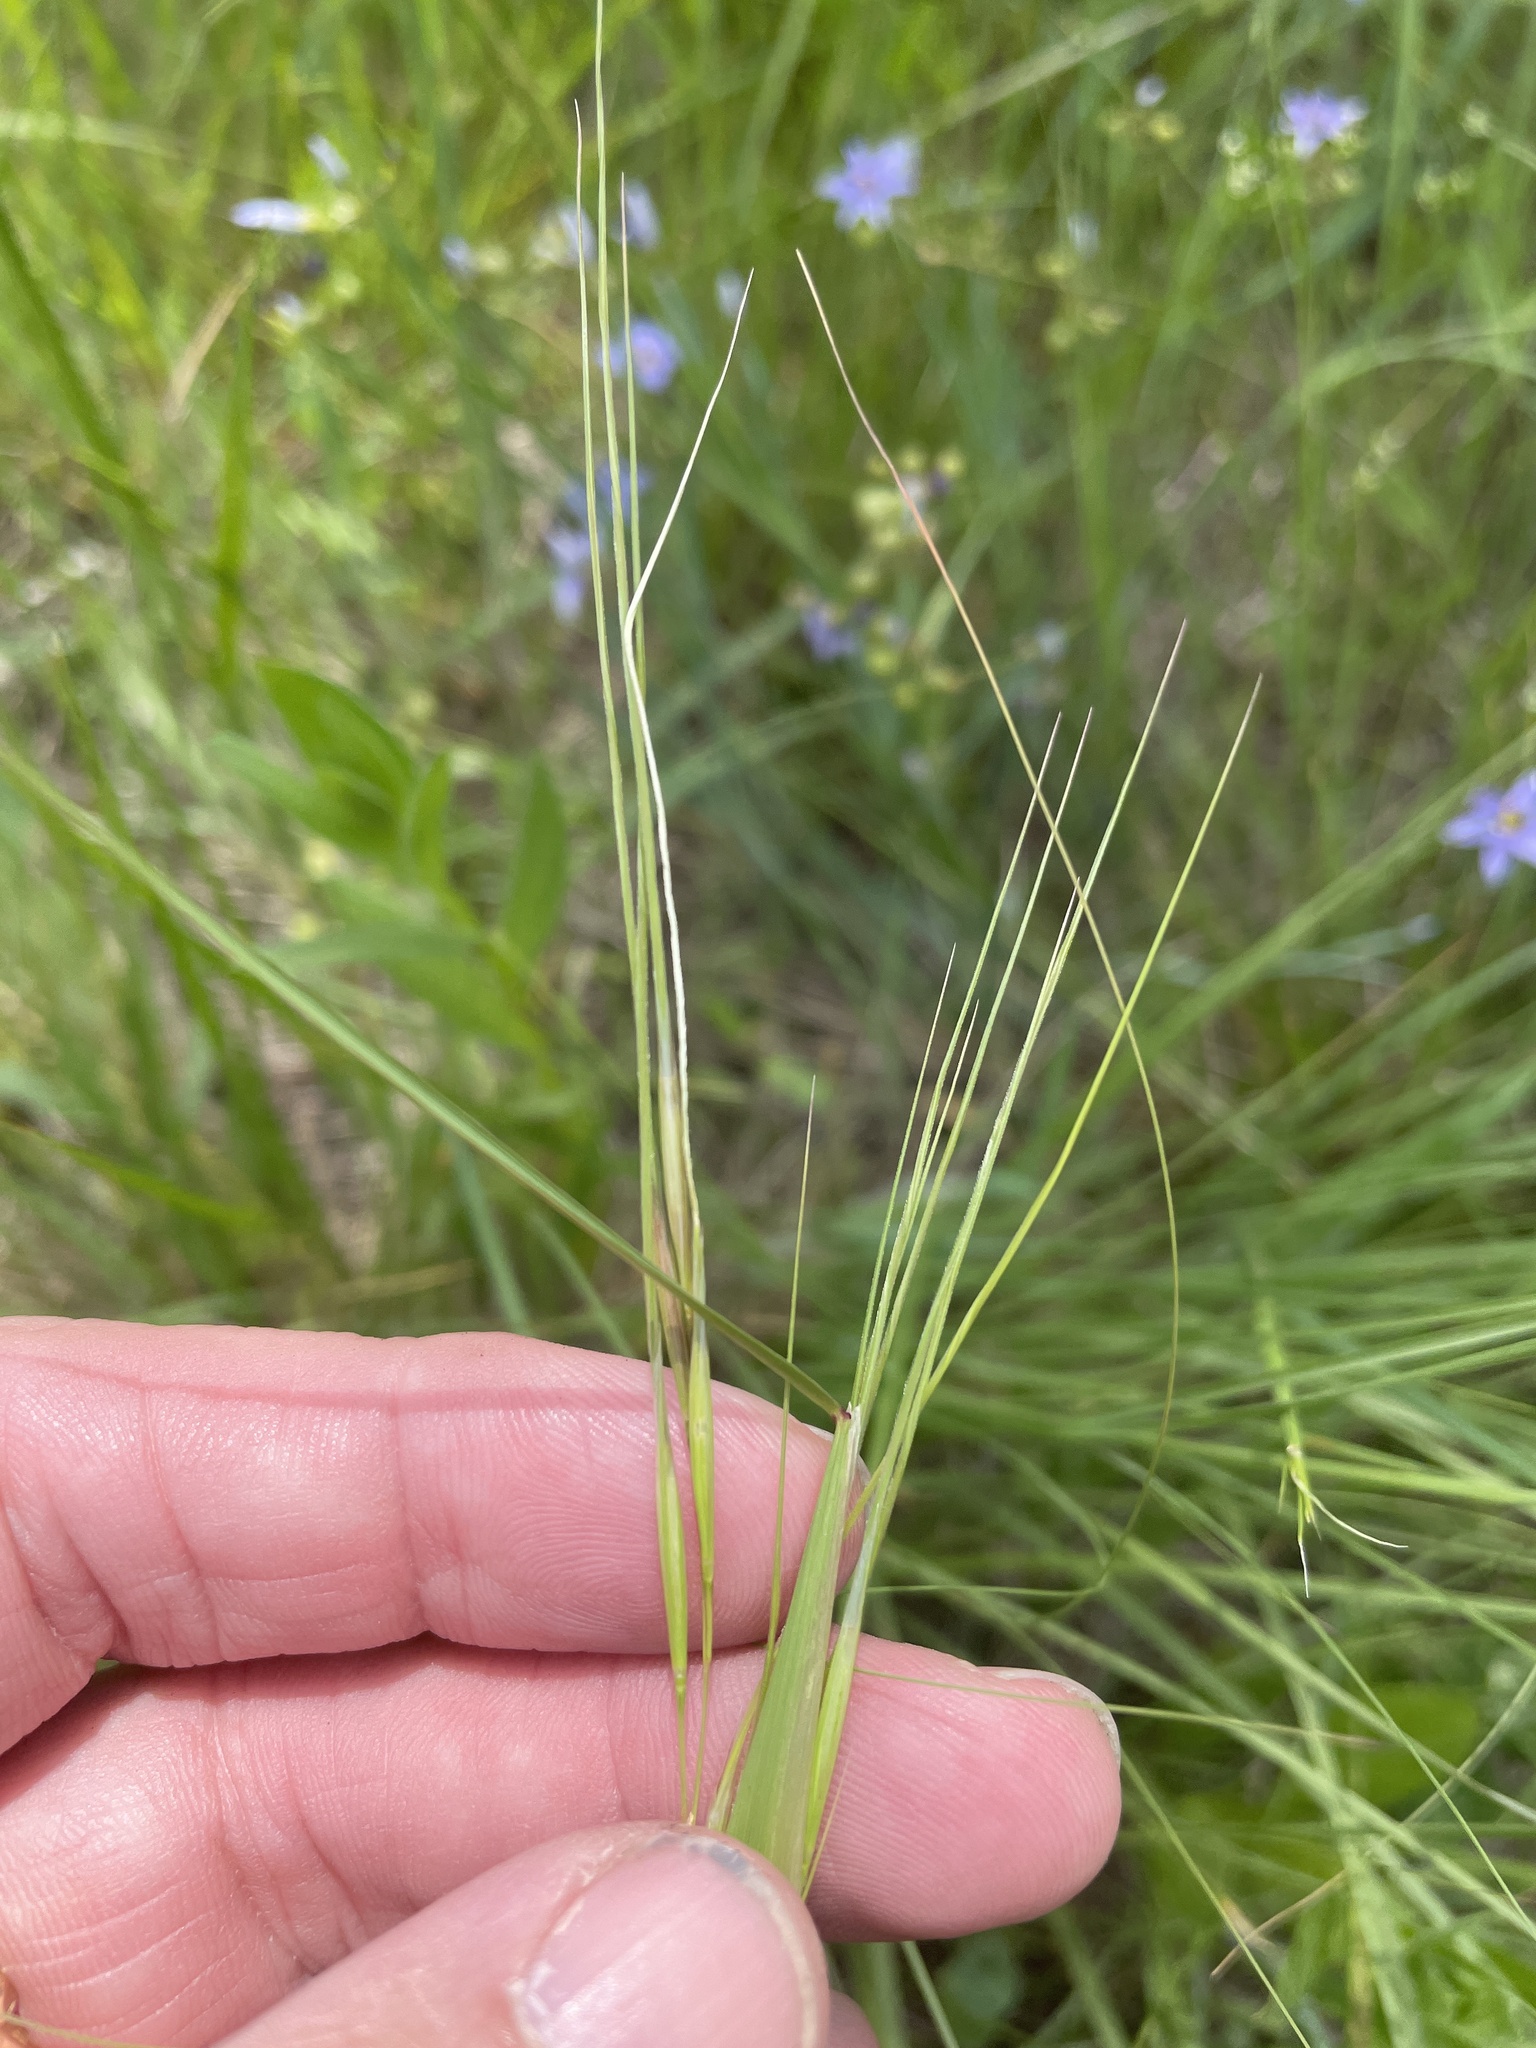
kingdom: Plantae
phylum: Tracheophyta
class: Liliopsida
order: Poales
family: Poaceae
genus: Nassella
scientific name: Nassella leucotricha
